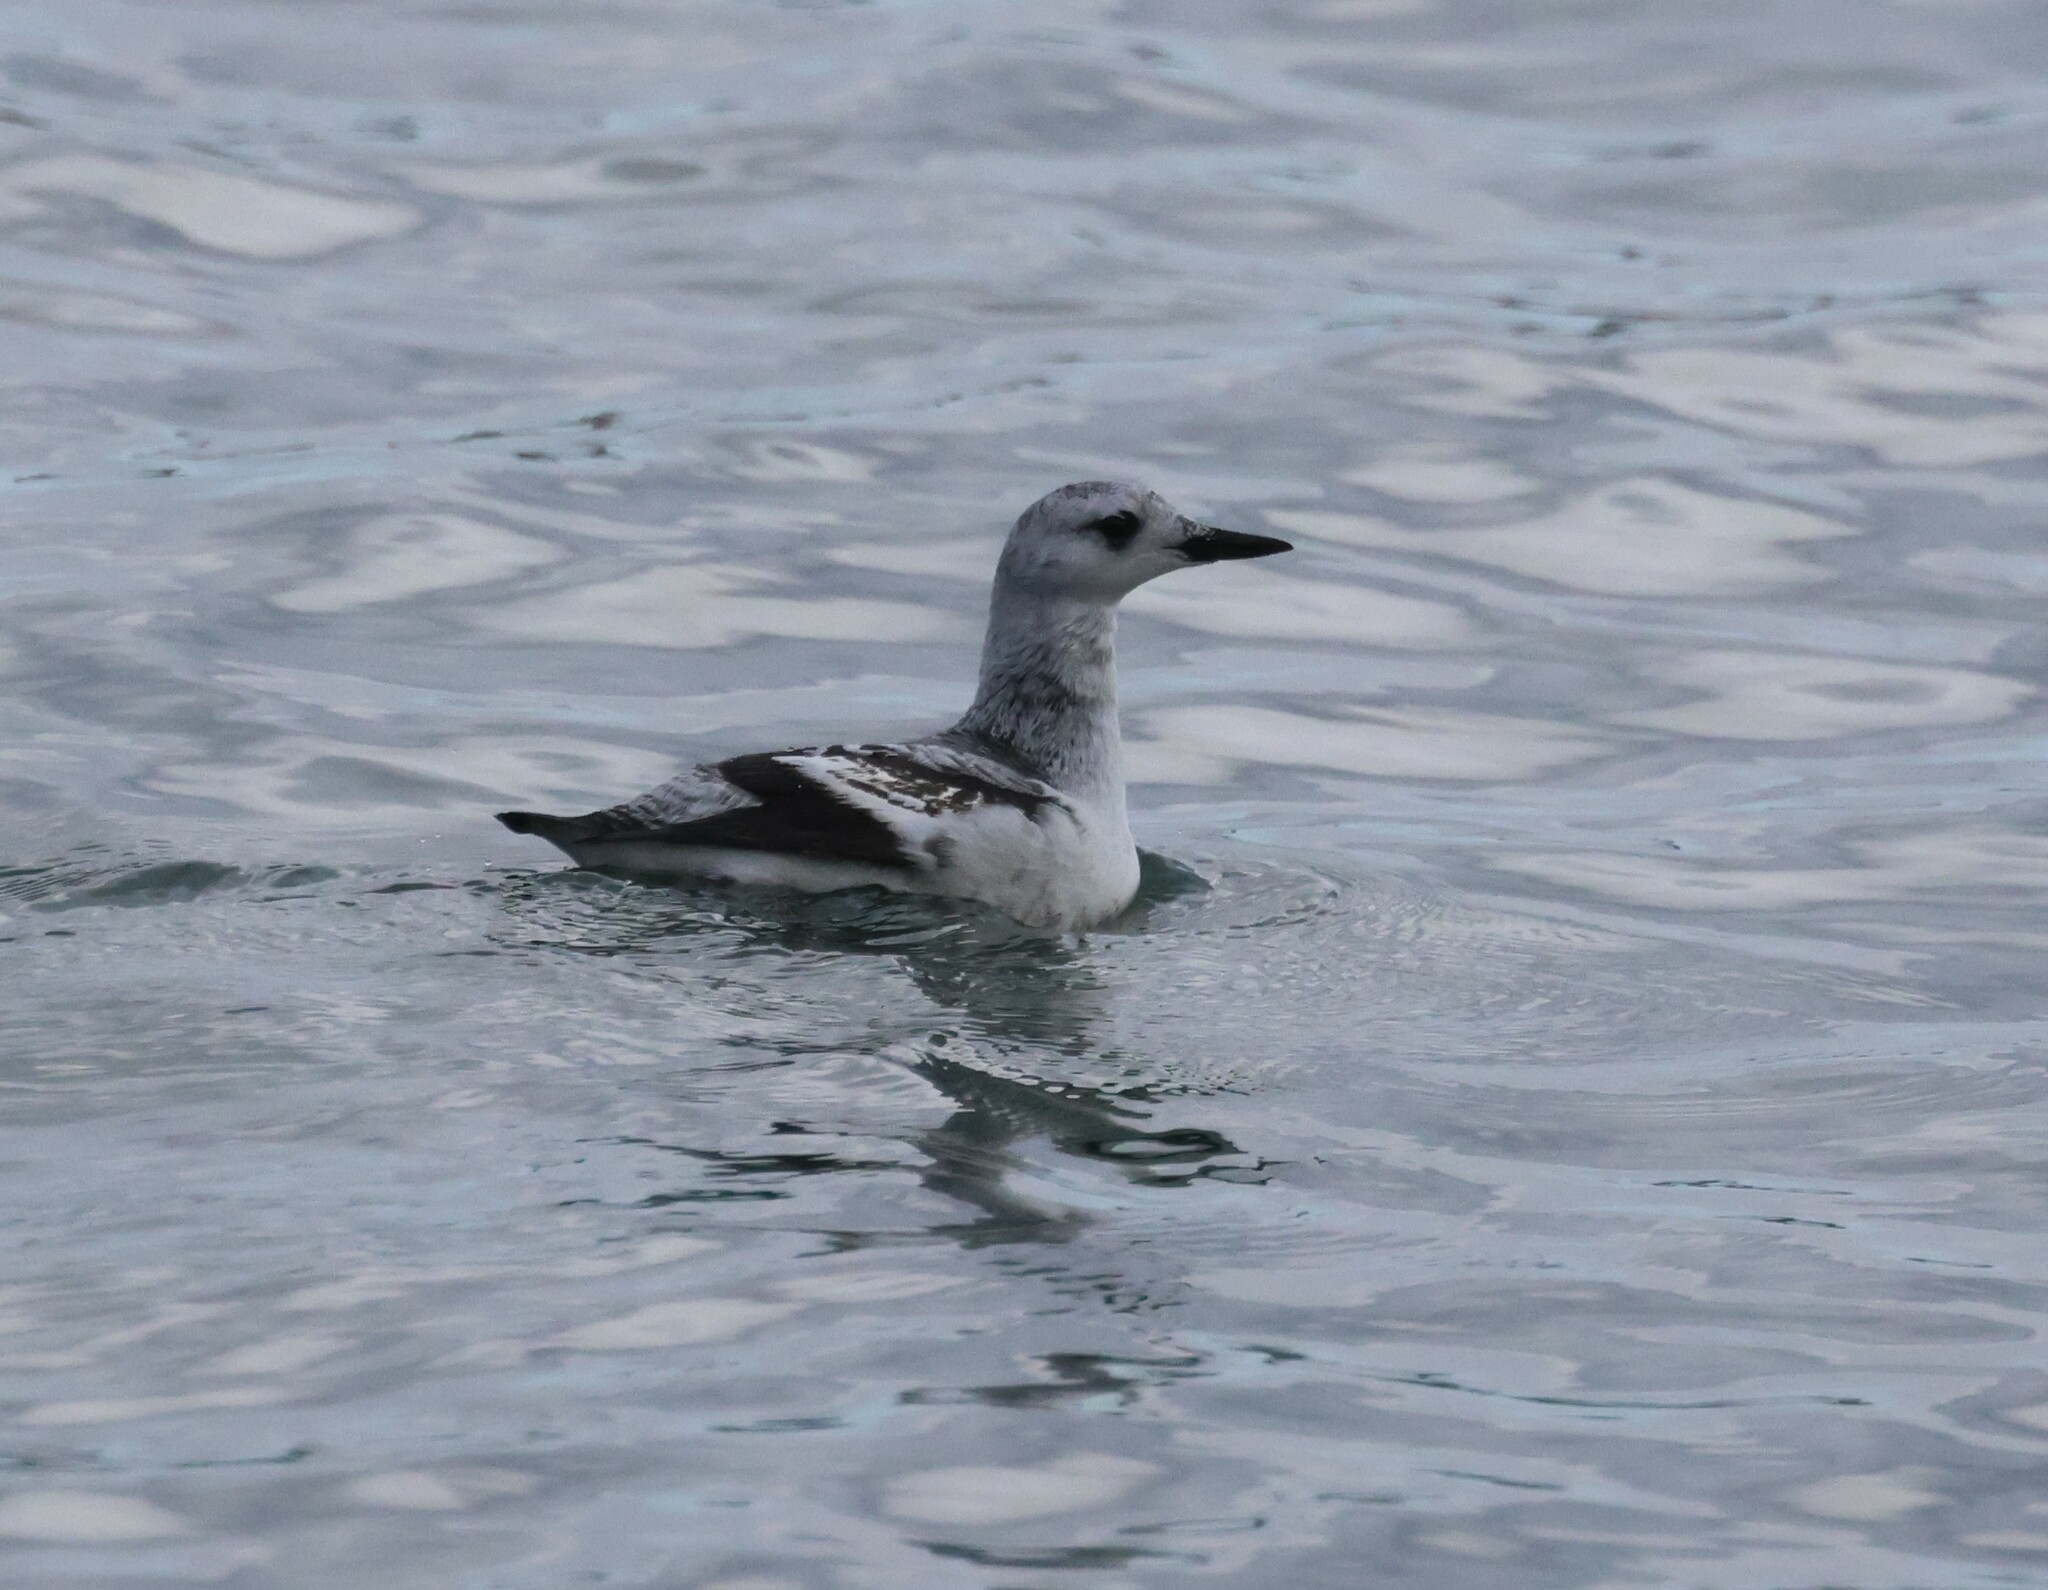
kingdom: Animalia
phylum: Chordata
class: Aves
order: Charadriiformes
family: Alcidae
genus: Cepphus
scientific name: Cepphus grylle
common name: Black guillemot
